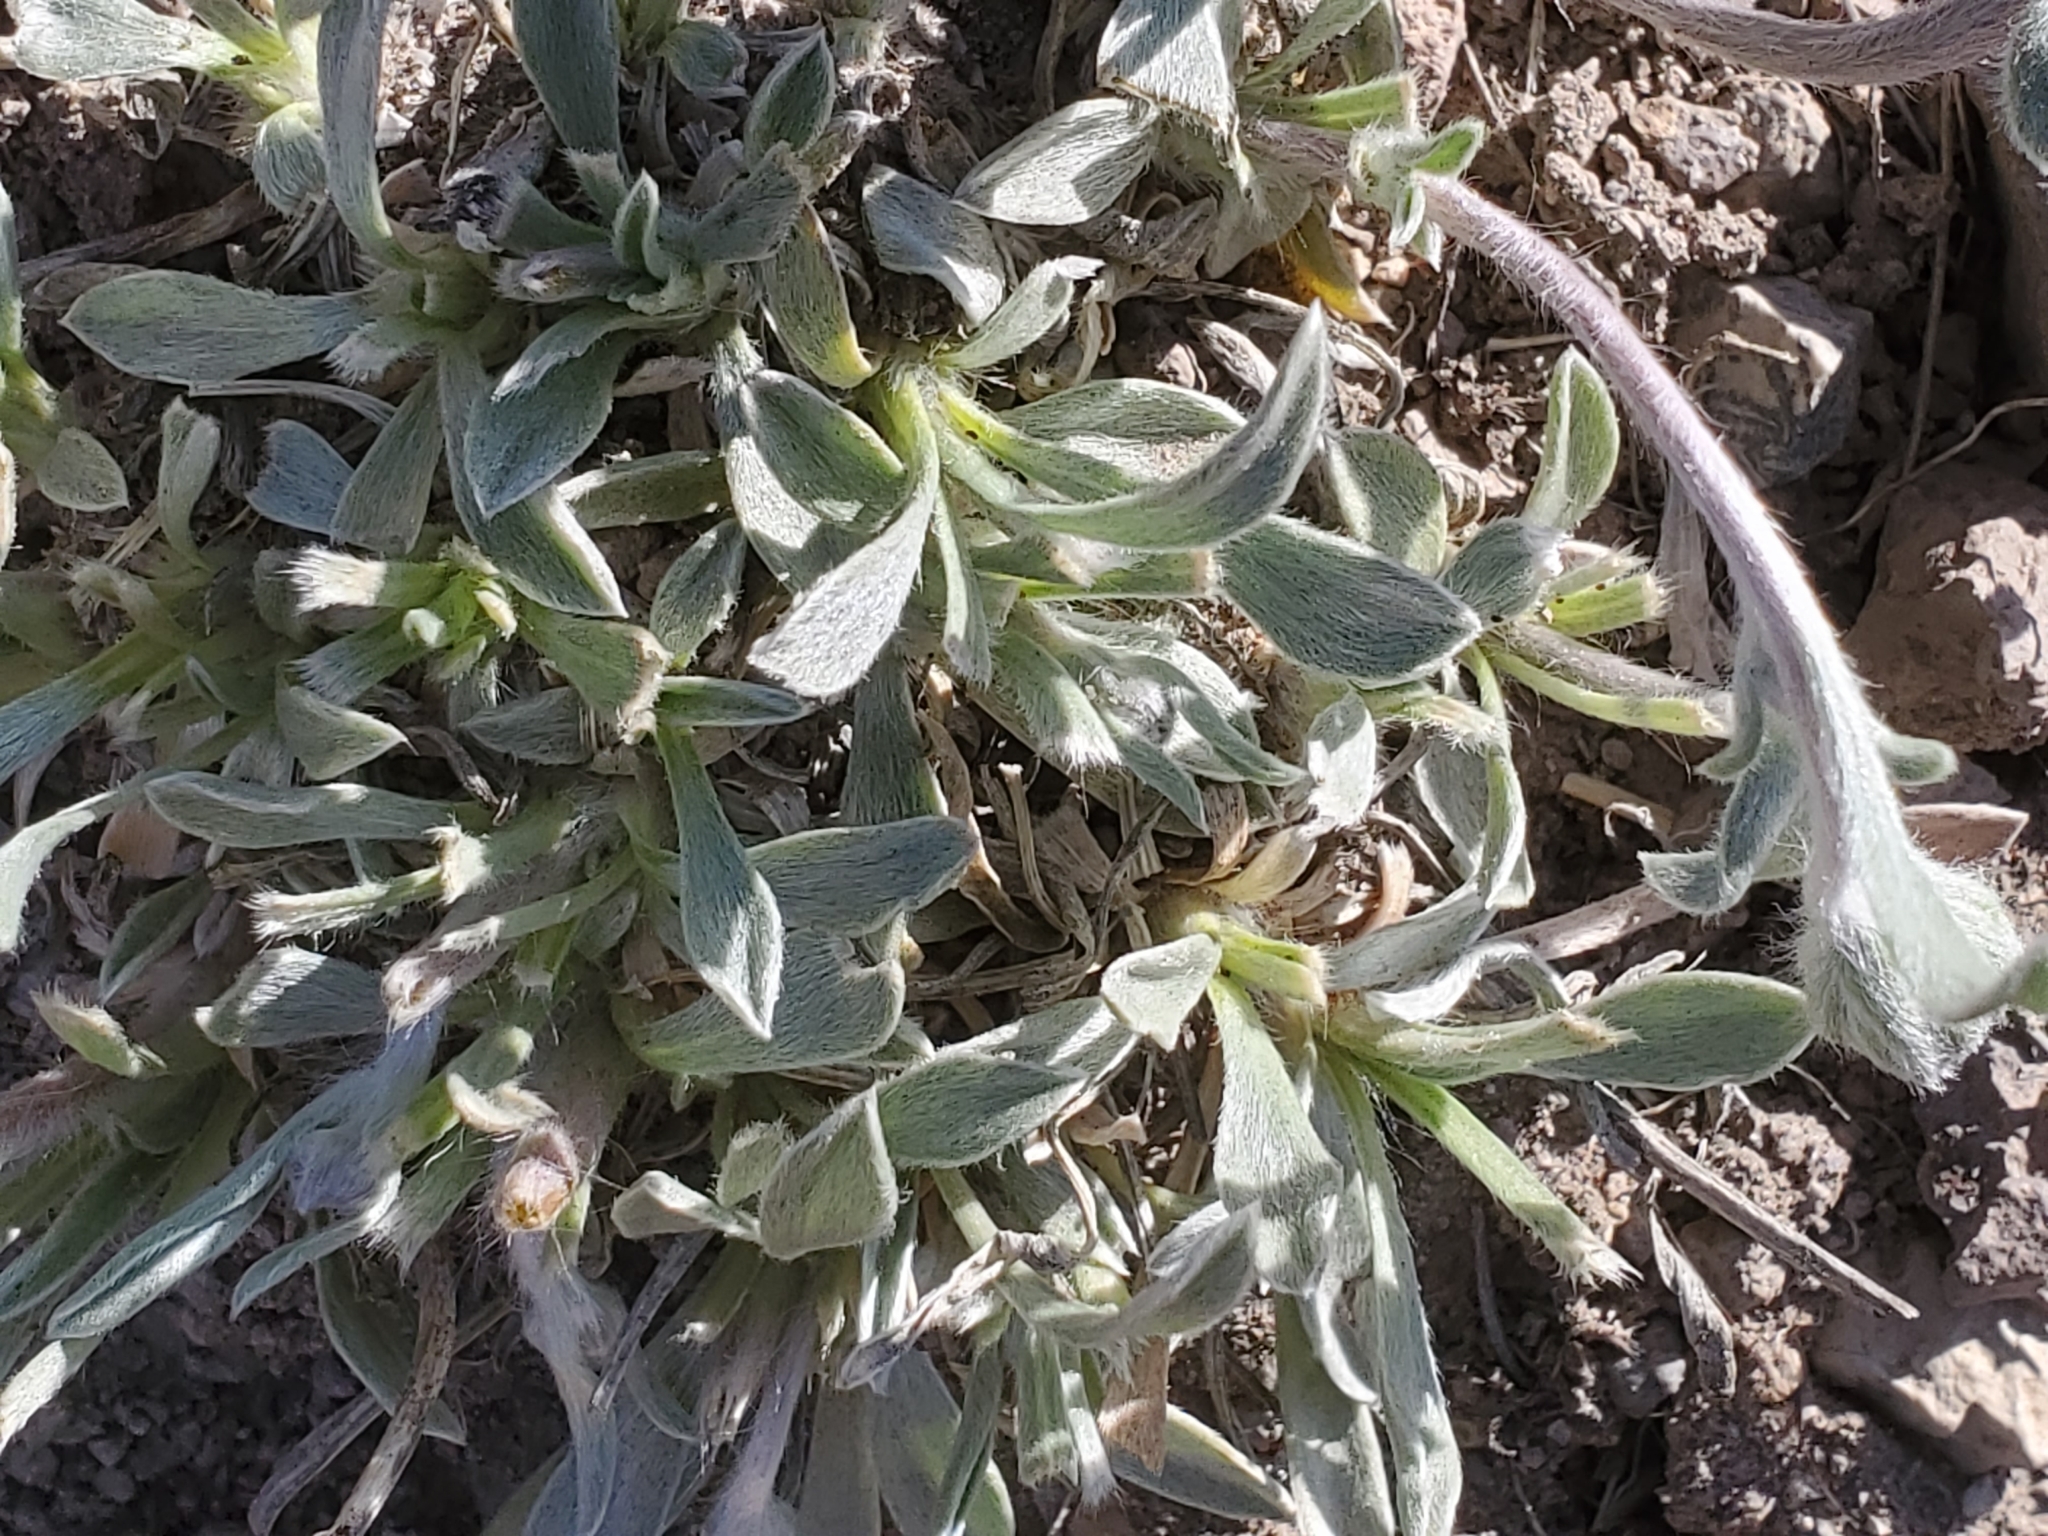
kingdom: Plantae
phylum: Tracheophyta
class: Magnoliopsida
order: Asterales
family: Asteraceae
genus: Tetraneuris
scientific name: Tetraneuris argentea
